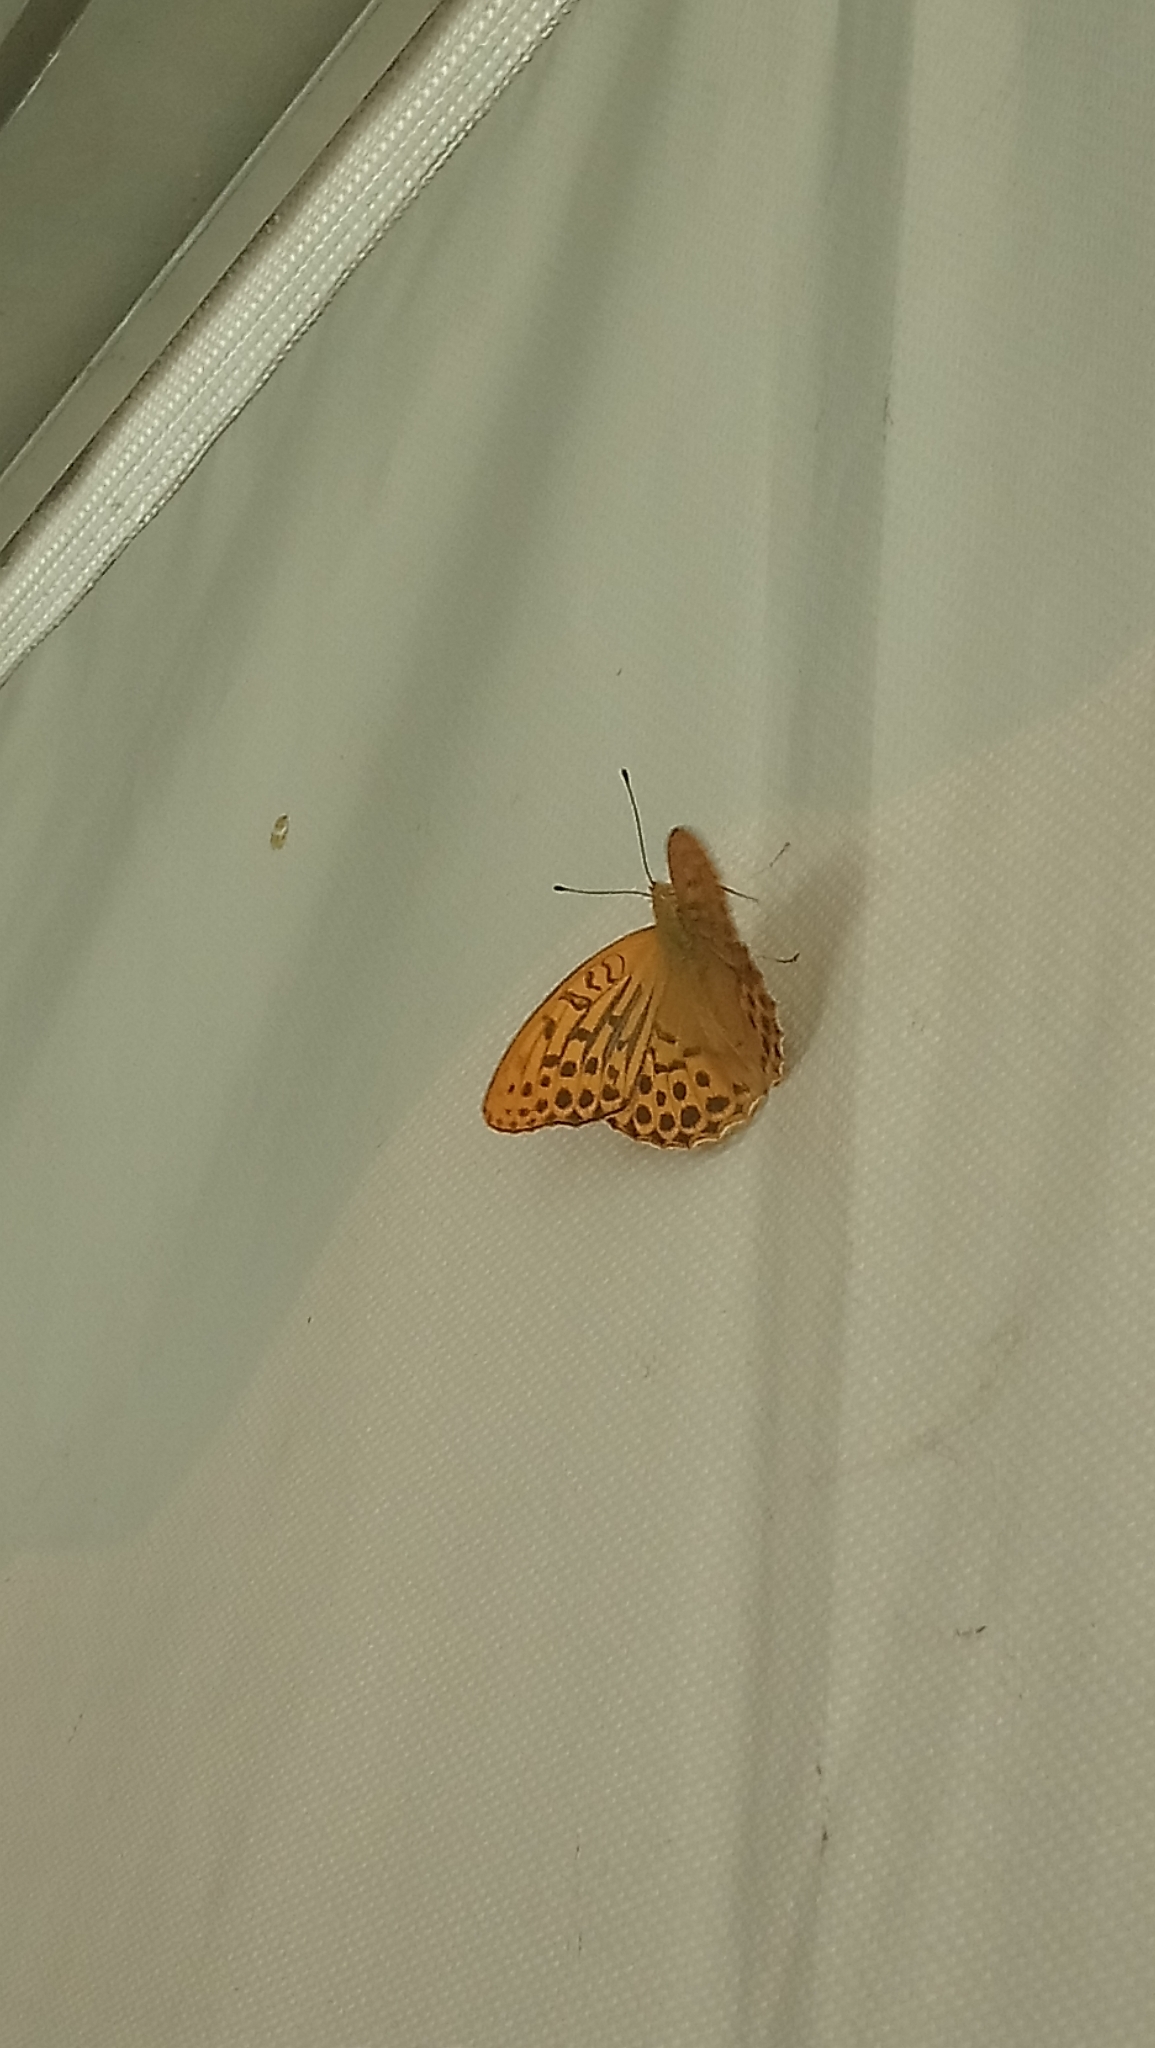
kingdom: Animalia
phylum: Arthropoda
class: Insecta
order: Lepidoptera
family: Nymphalidae
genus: Argynnis
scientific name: Argynnis paphia
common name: Silver-washed fritillary
